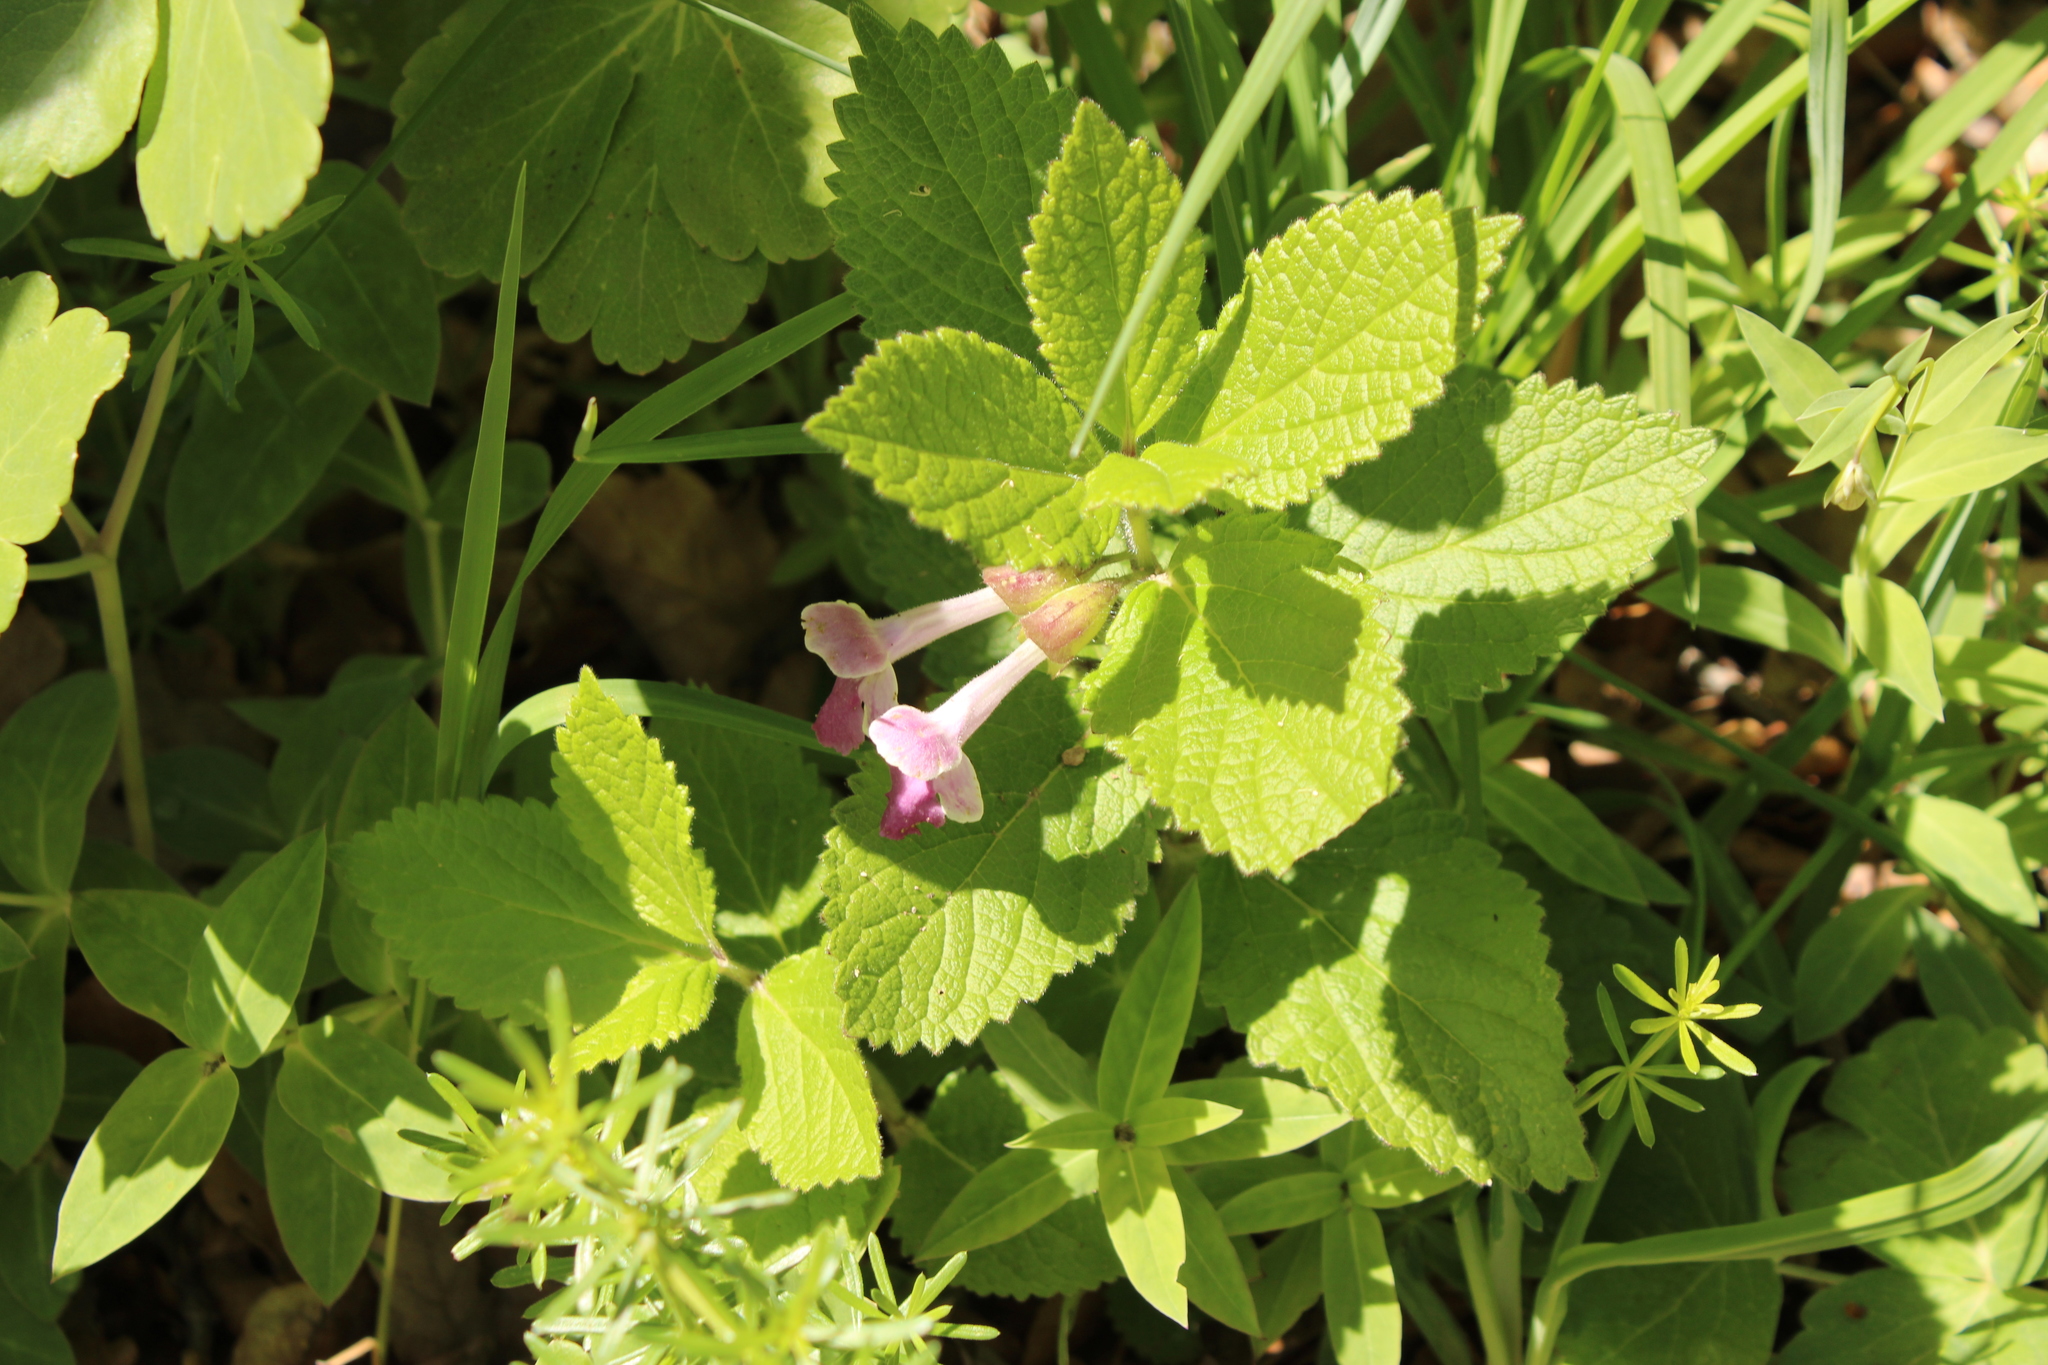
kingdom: Plantae
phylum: Tracheophyta
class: Magnoliopsida
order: Lamiales
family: Lamiaceae
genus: Melittis
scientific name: Melittis melissophyllum
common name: Bastard balm
